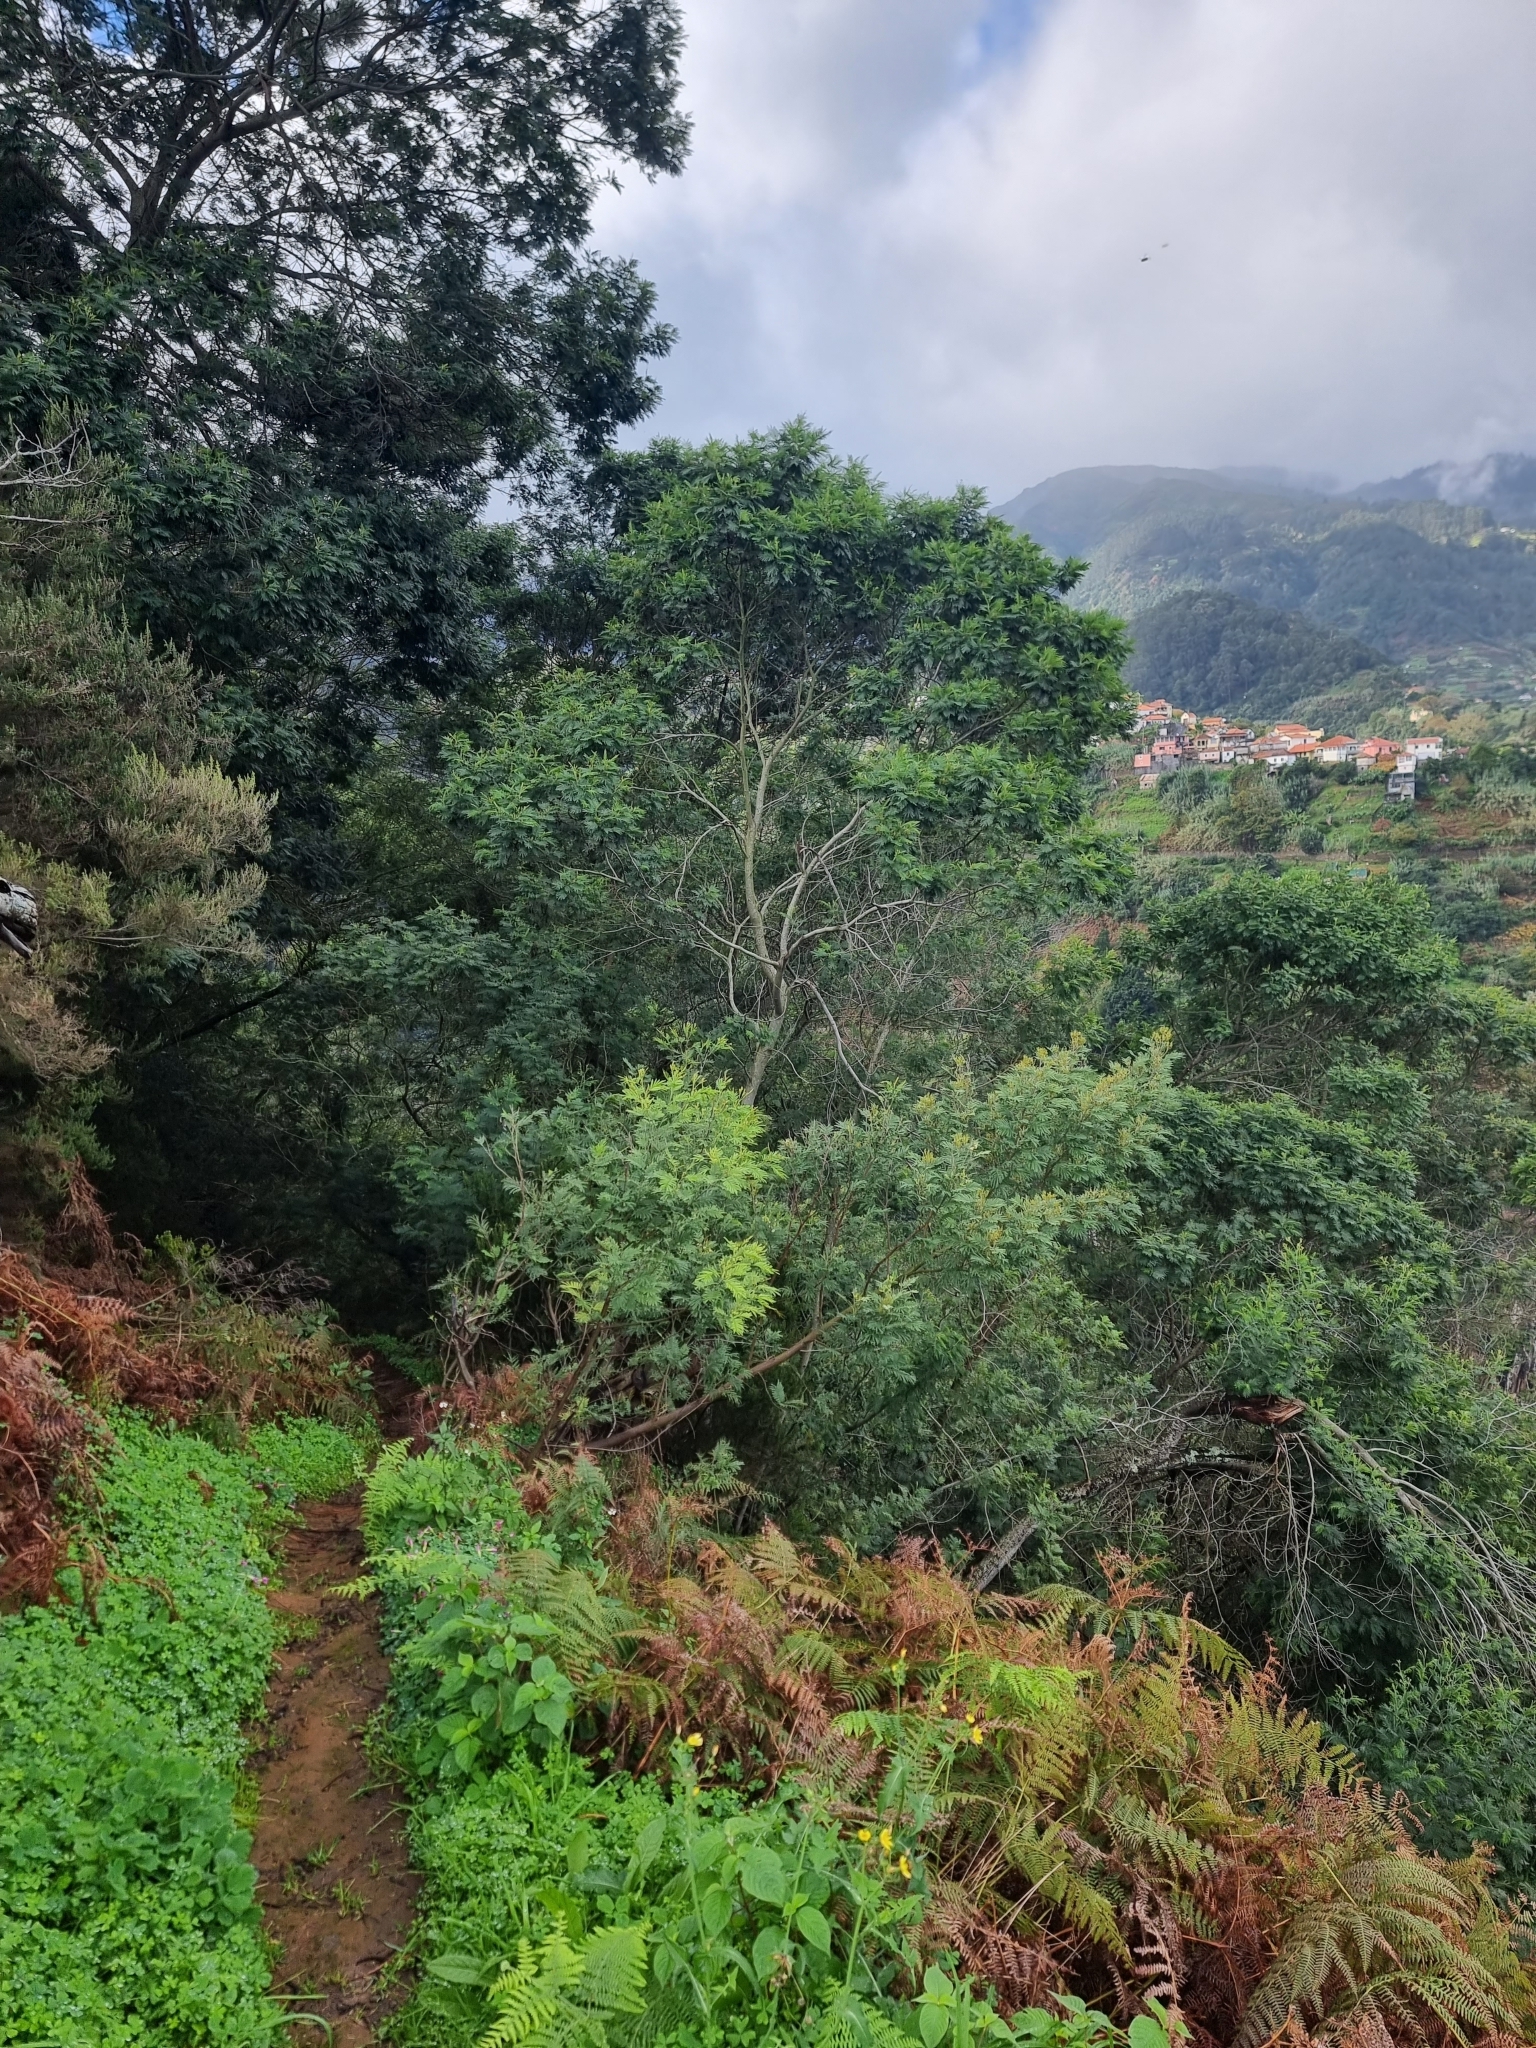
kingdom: Plantae
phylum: Tracheophyta
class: Magnoliopsida
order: Fabales
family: Fabaceae
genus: Acacia
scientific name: Acacia mearnsii
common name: Black wattle
